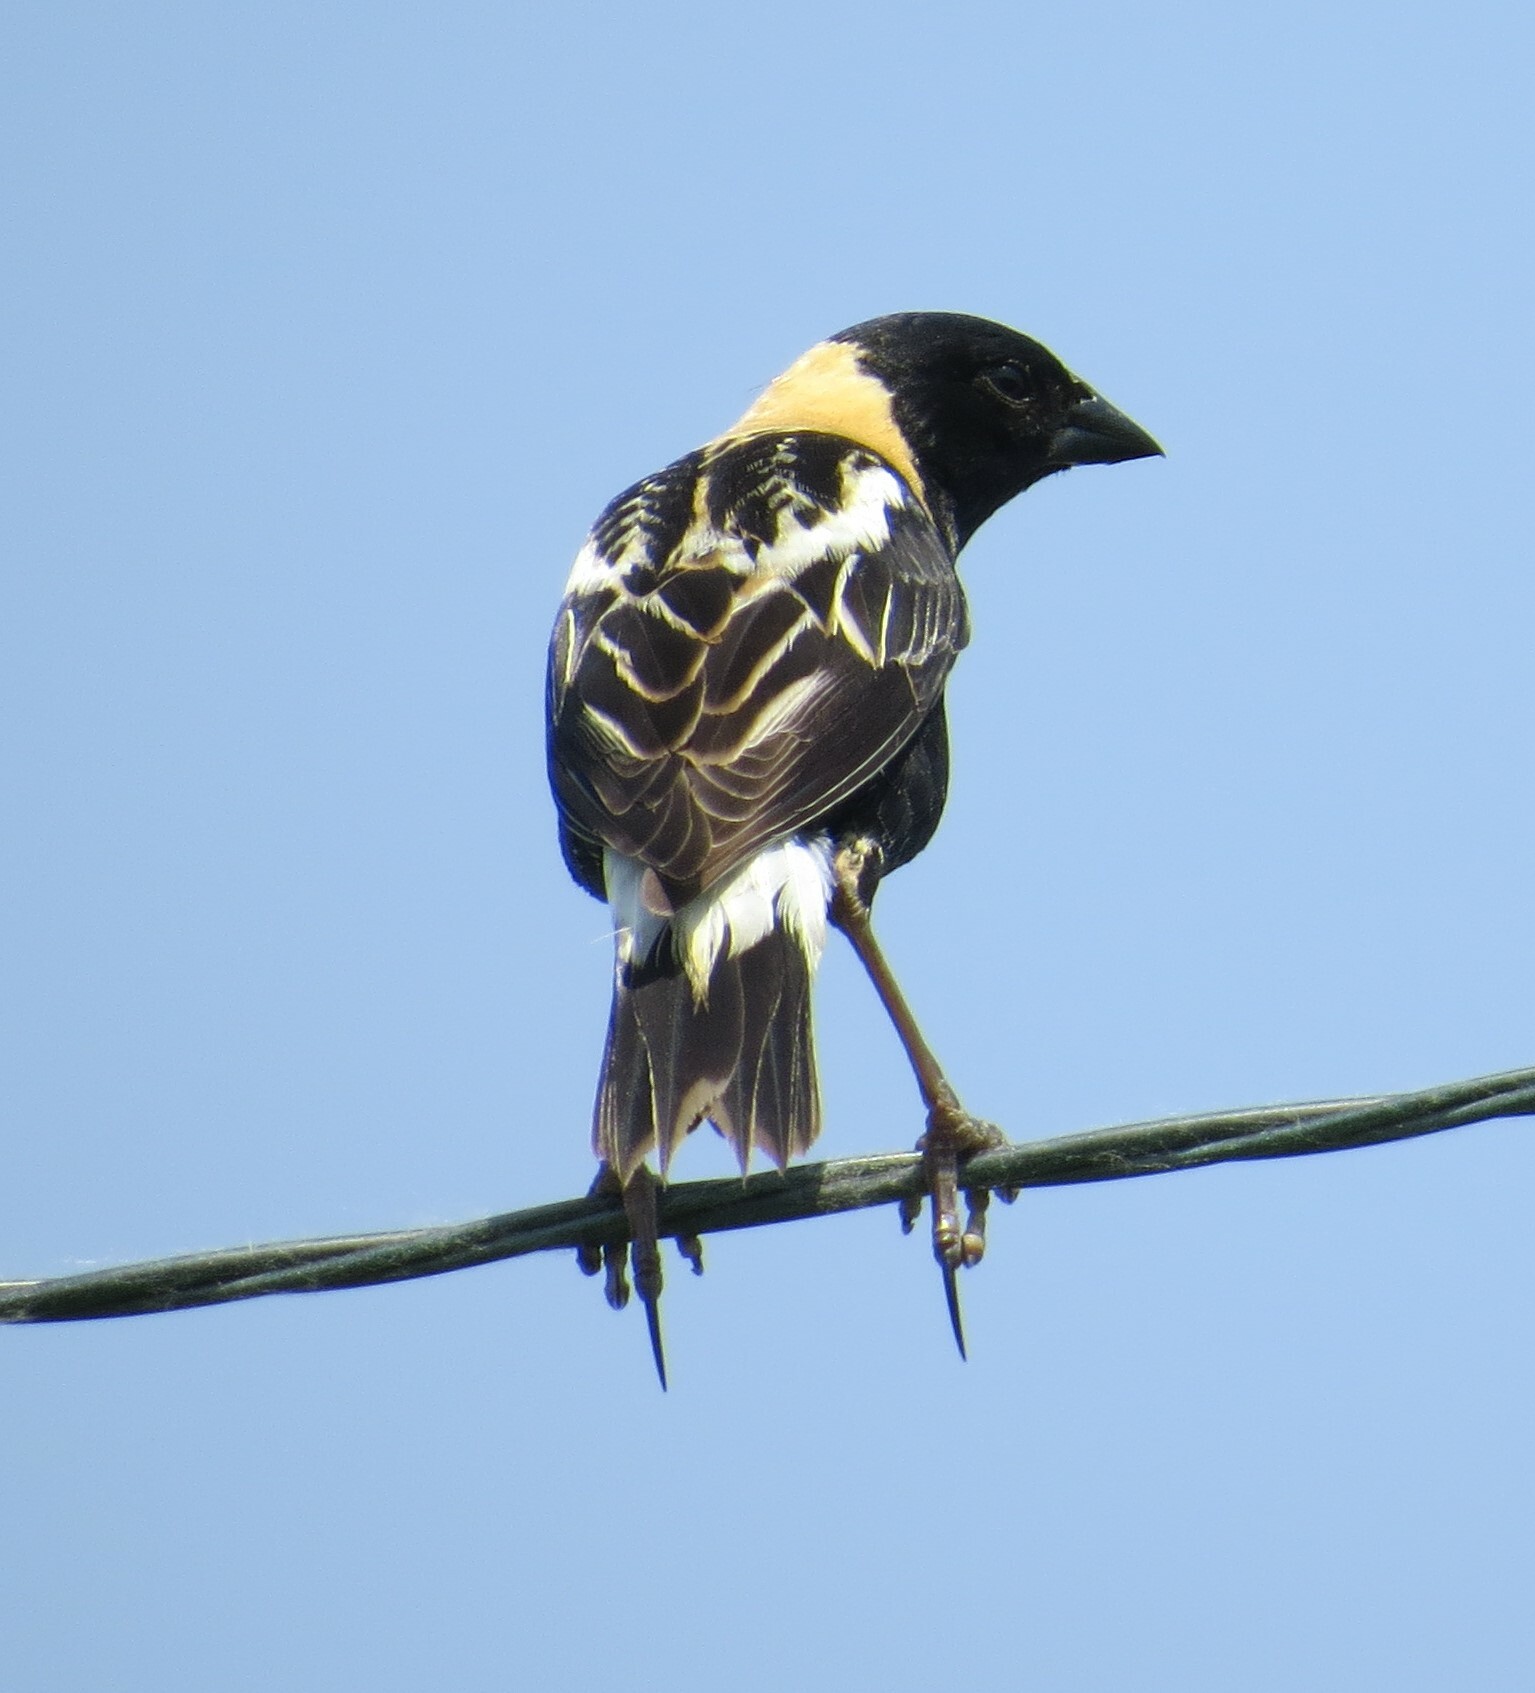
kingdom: Animalia
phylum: Chordata
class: Aves
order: Passeriformes
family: Icteridae
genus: Dolichonyx
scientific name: Dolichonyx oryzivorus
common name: Bobolink
